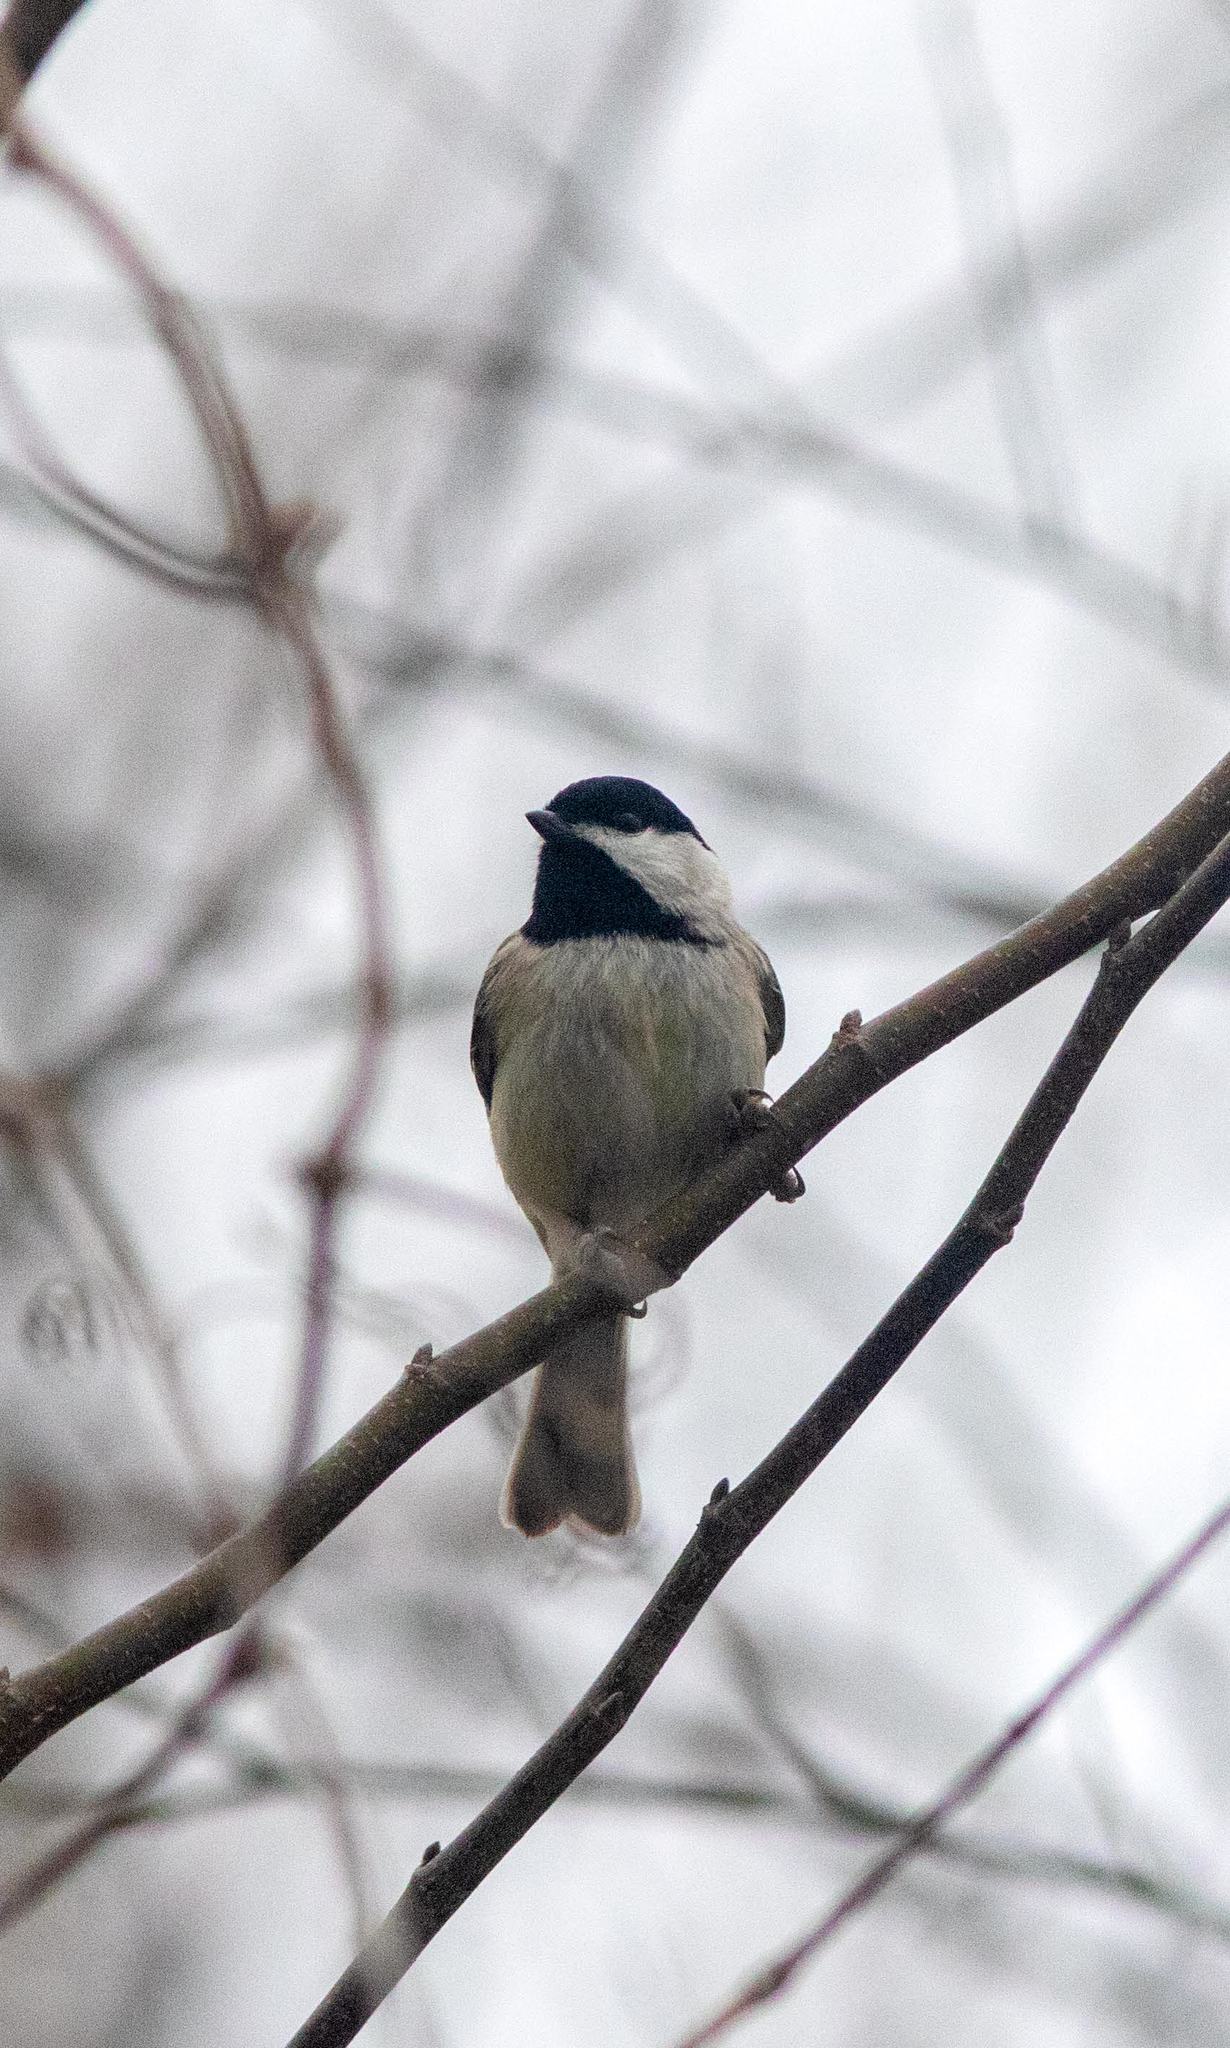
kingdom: Animalia
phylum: Chordata
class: Aves
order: Passeriformes
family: Paridae
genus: Poecile
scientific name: Poecile carolinensis
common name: Carolina chickadee
